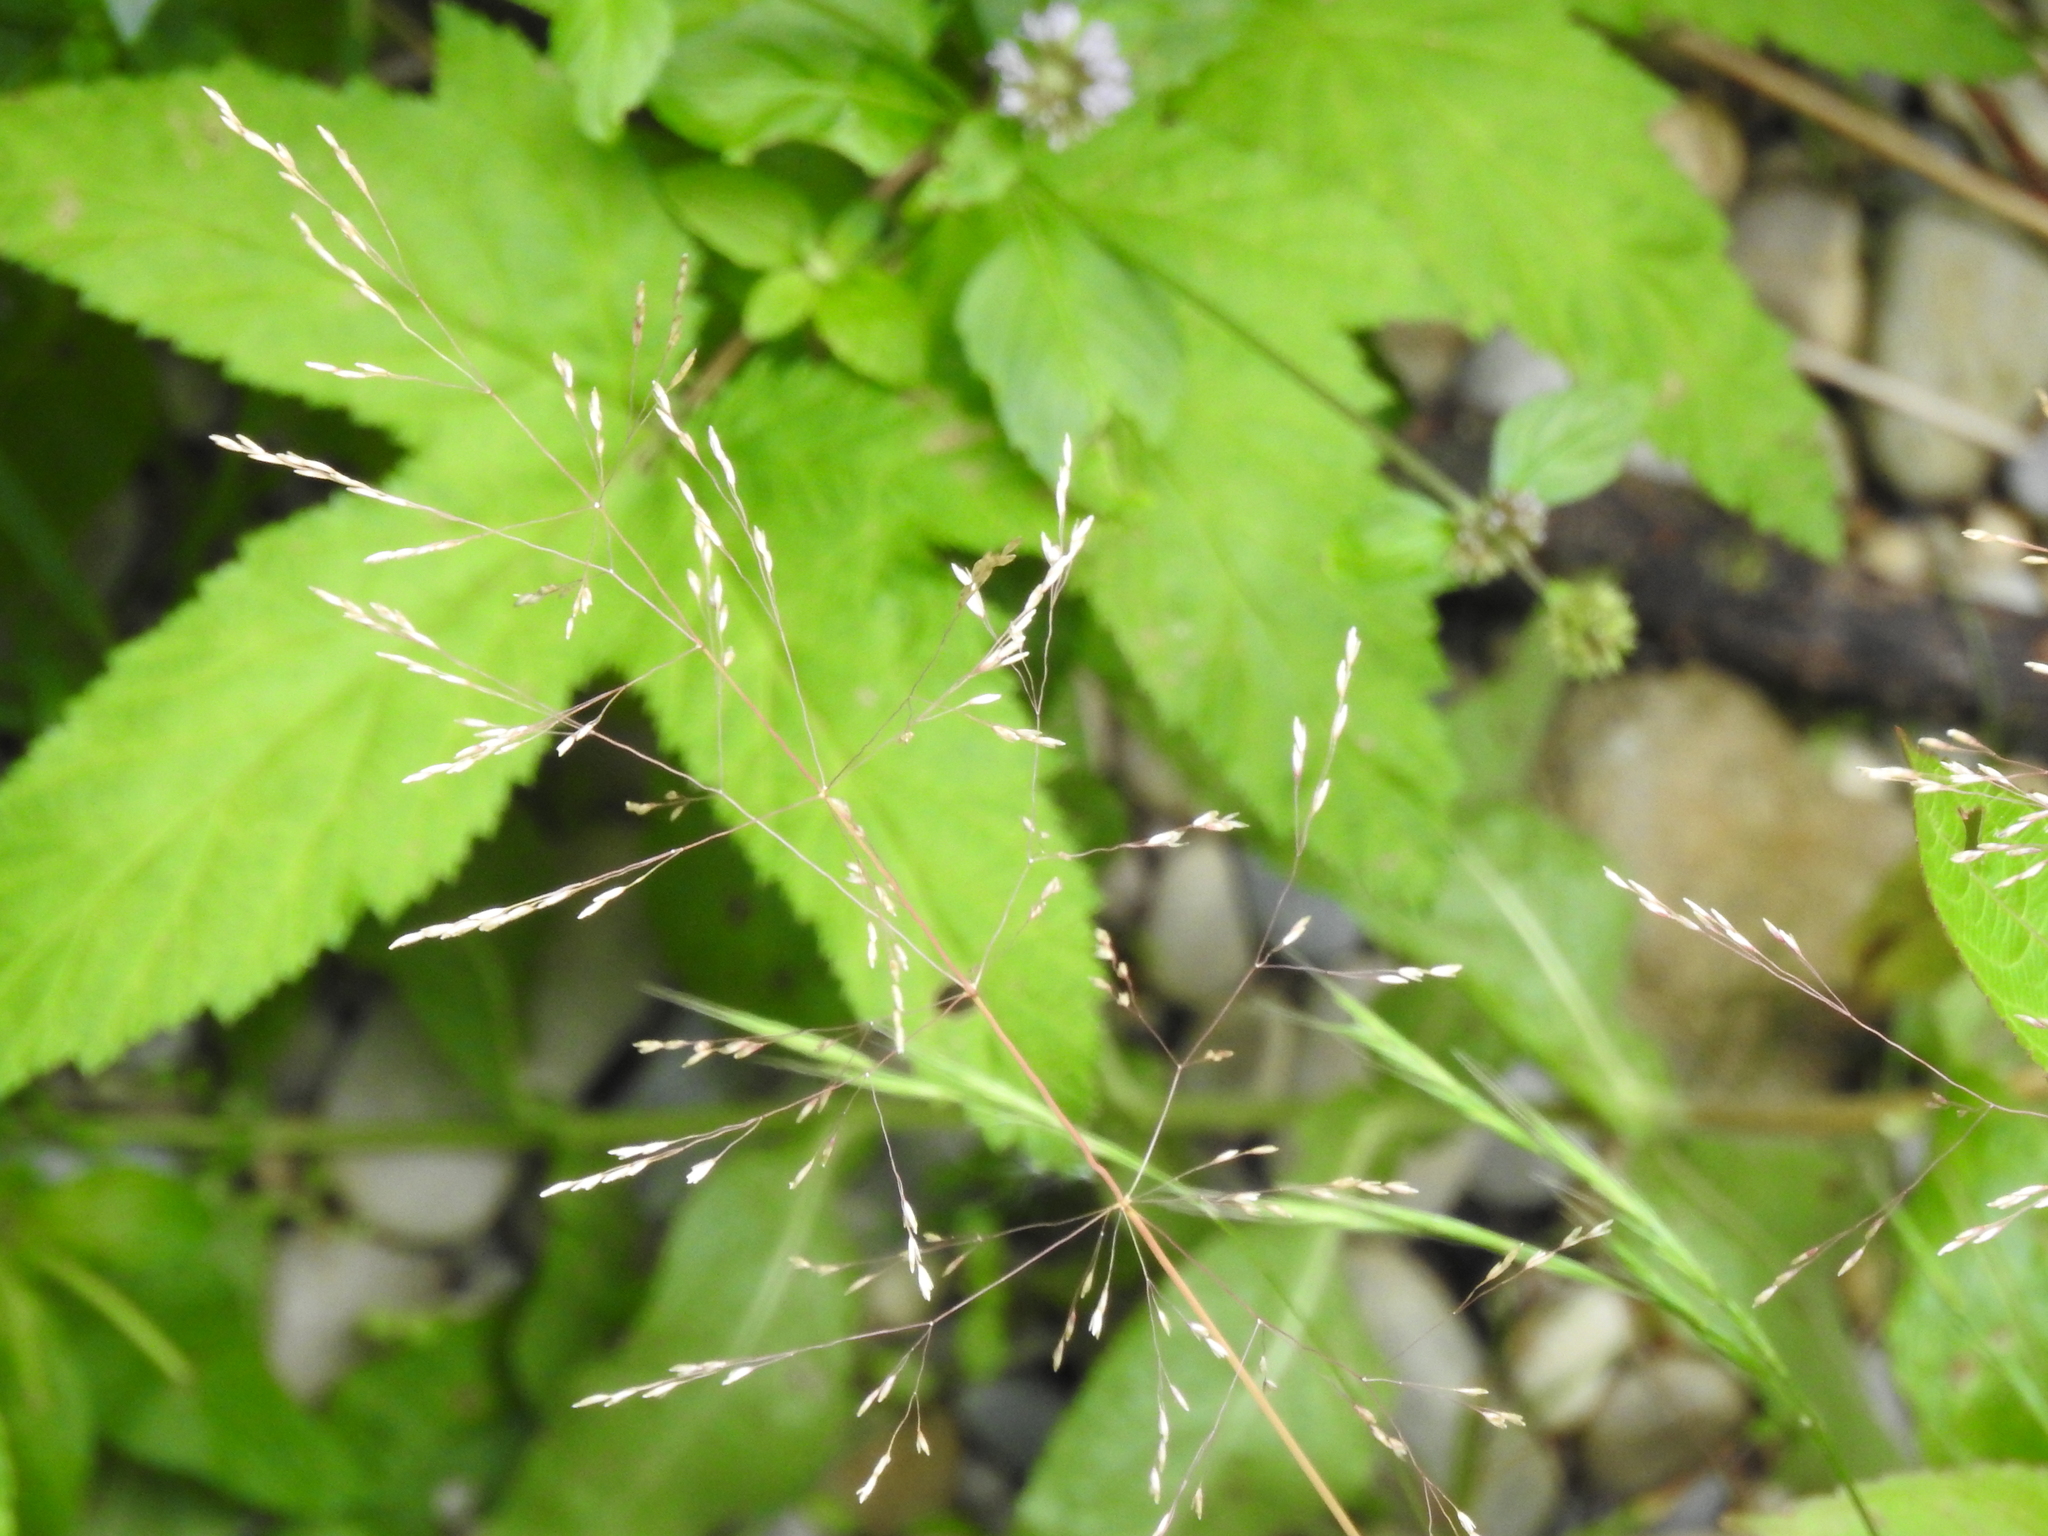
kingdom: Plantae
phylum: Tracheophyta
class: Liliopsida
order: Poales
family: Poaceae
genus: Agrostis
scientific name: Agrostis capillaris
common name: Colonial bentgrass
